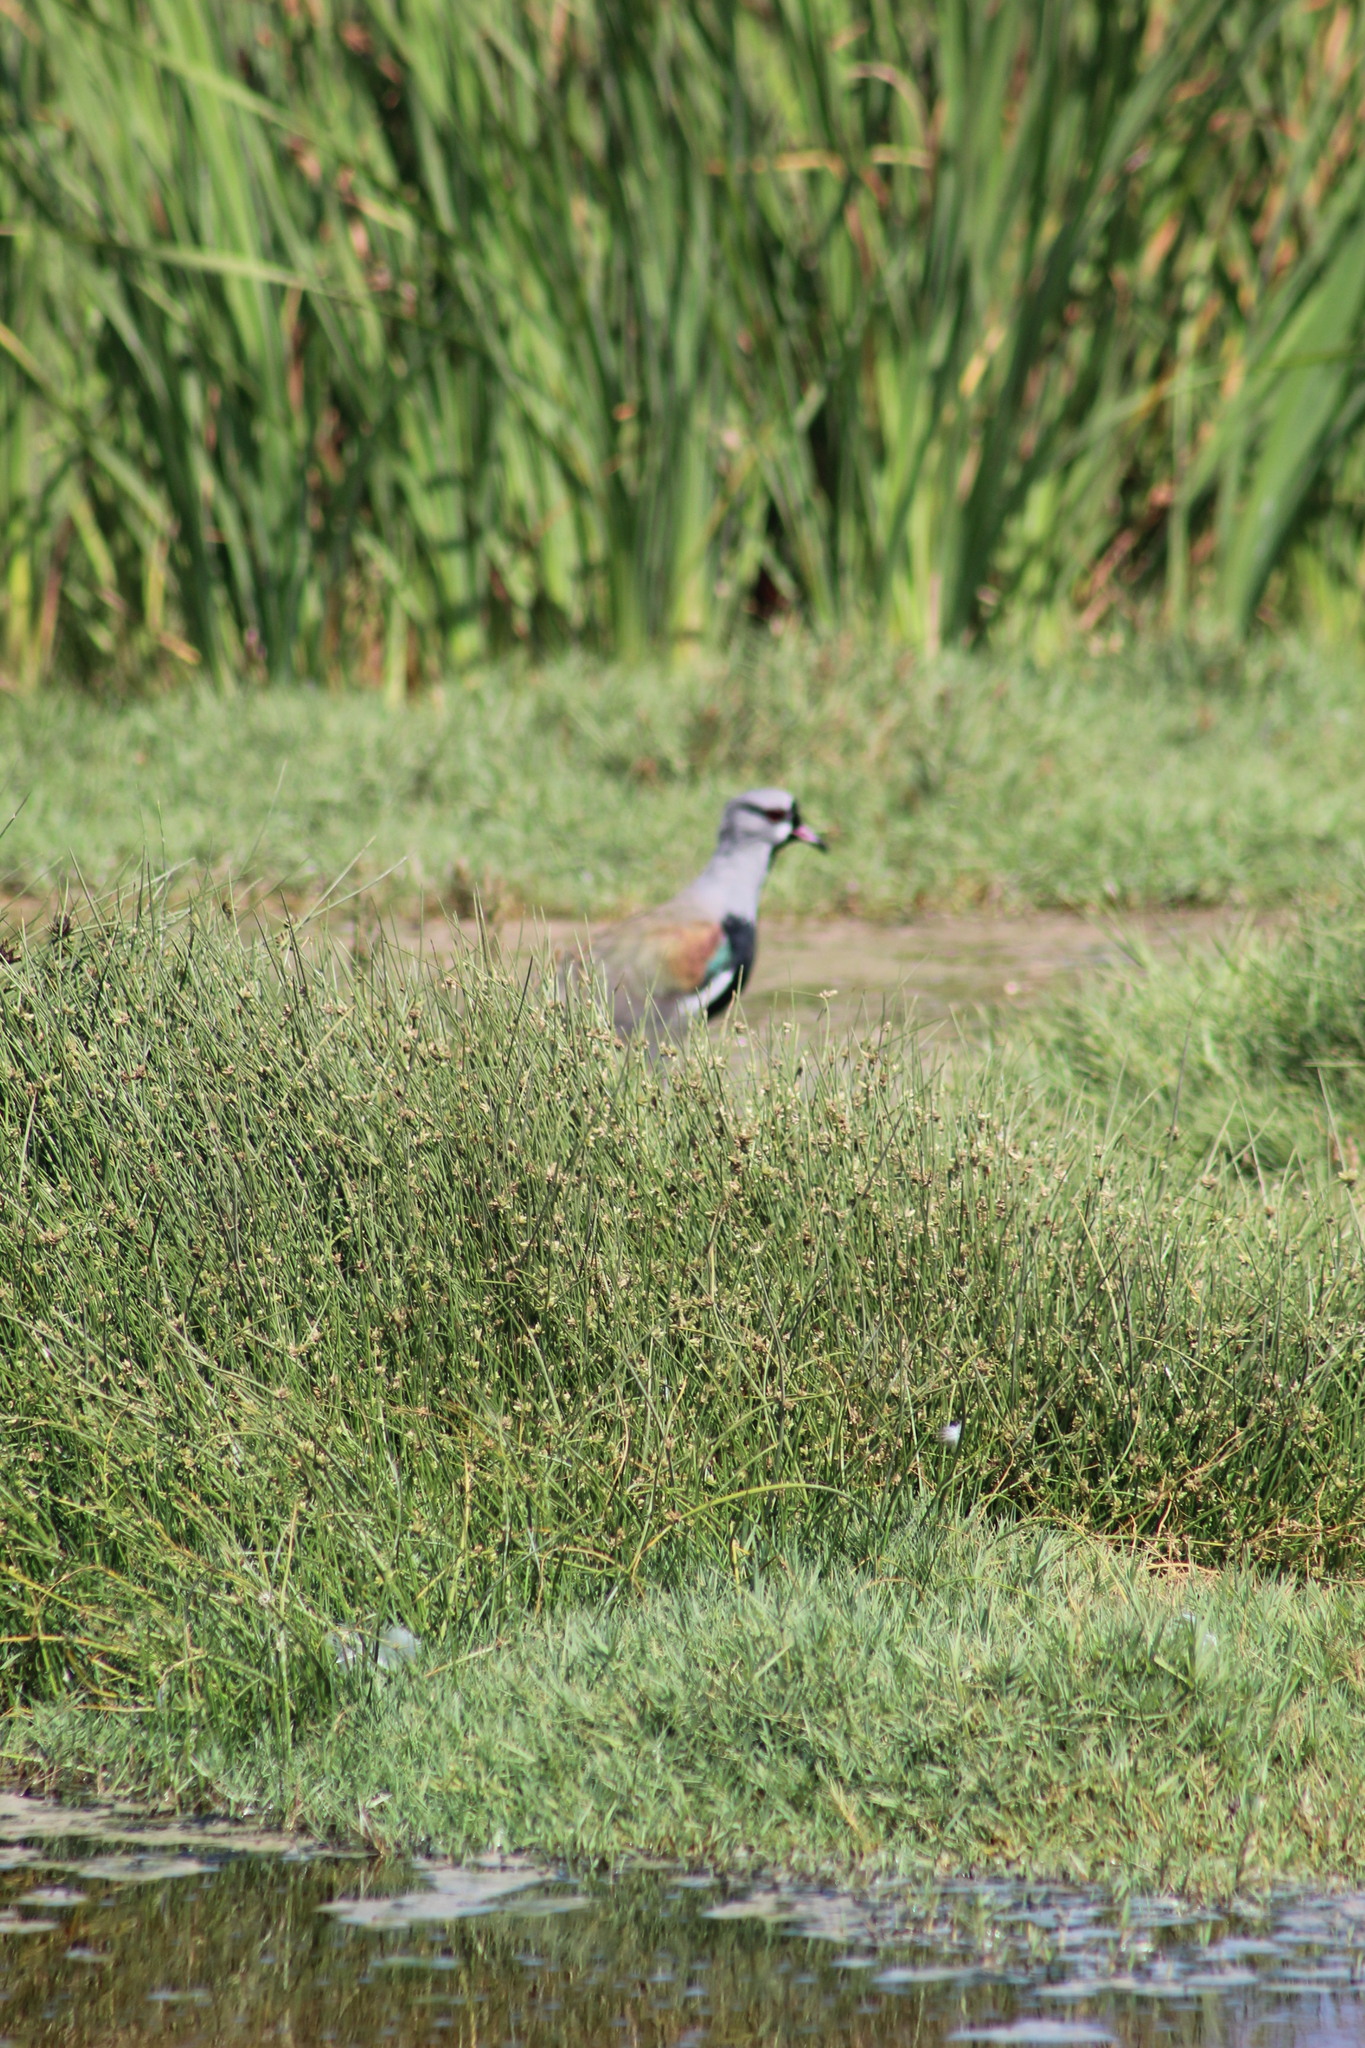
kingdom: Animalia
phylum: Chordata
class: Aves
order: Charadriiformes
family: Charadriidae
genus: Vanellus
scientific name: Vanellus chilensis
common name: Southern lapwing
